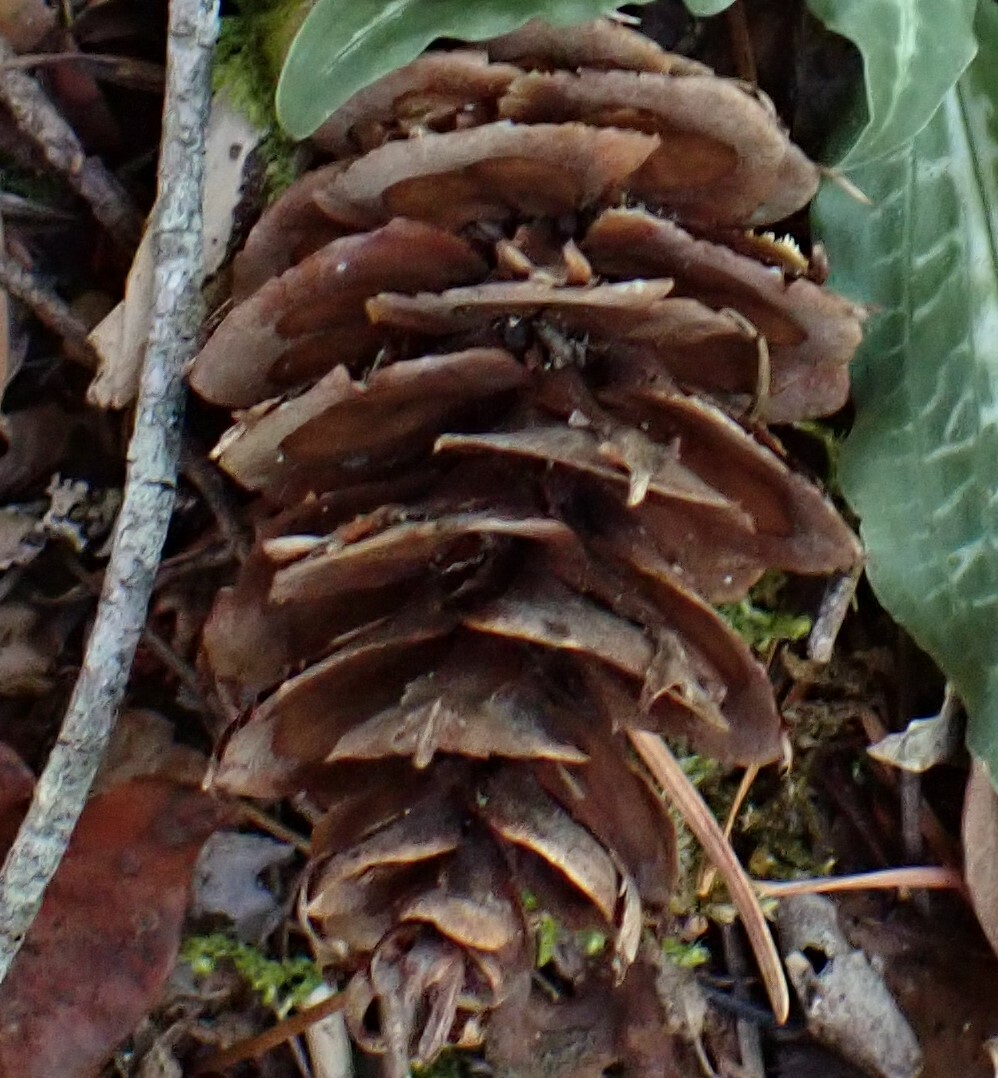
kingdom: Plantae
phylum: Tracheophyta
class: Pinopsida
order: Pinales
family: Pinaceae
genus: Pseudotsuga
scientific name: Pseudotsuga menziesii
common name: Douglas fir
